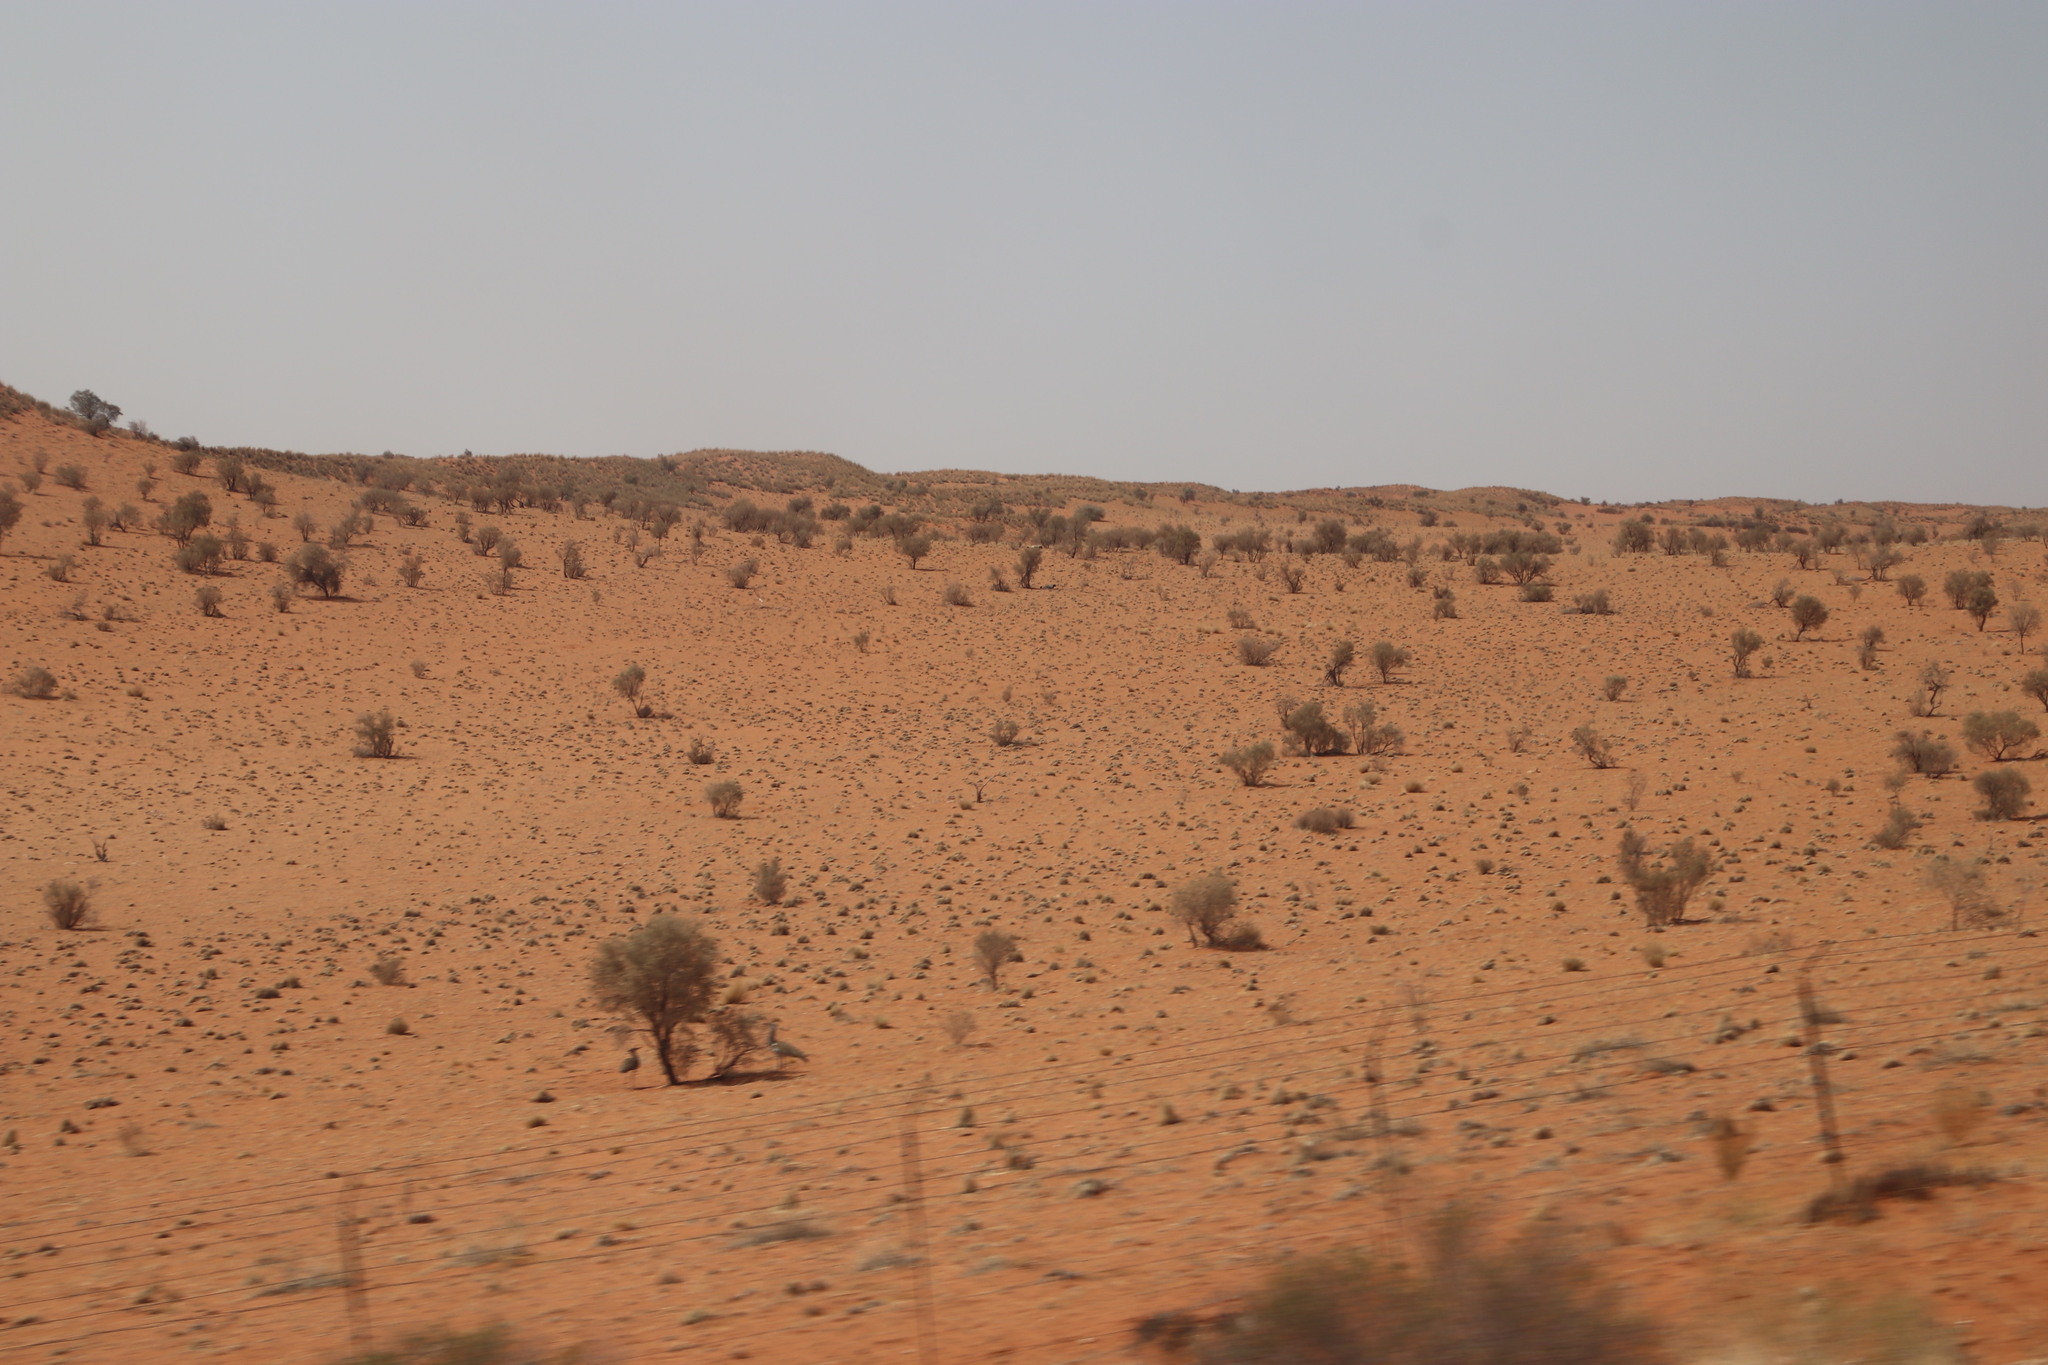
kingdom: Plantae
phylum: Tracheophyta
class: Magnoliopsida
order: Fabales
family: Fabaceae
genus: Vachellia
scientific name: Vachellia haematoxylon
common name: Grey camel thorn
